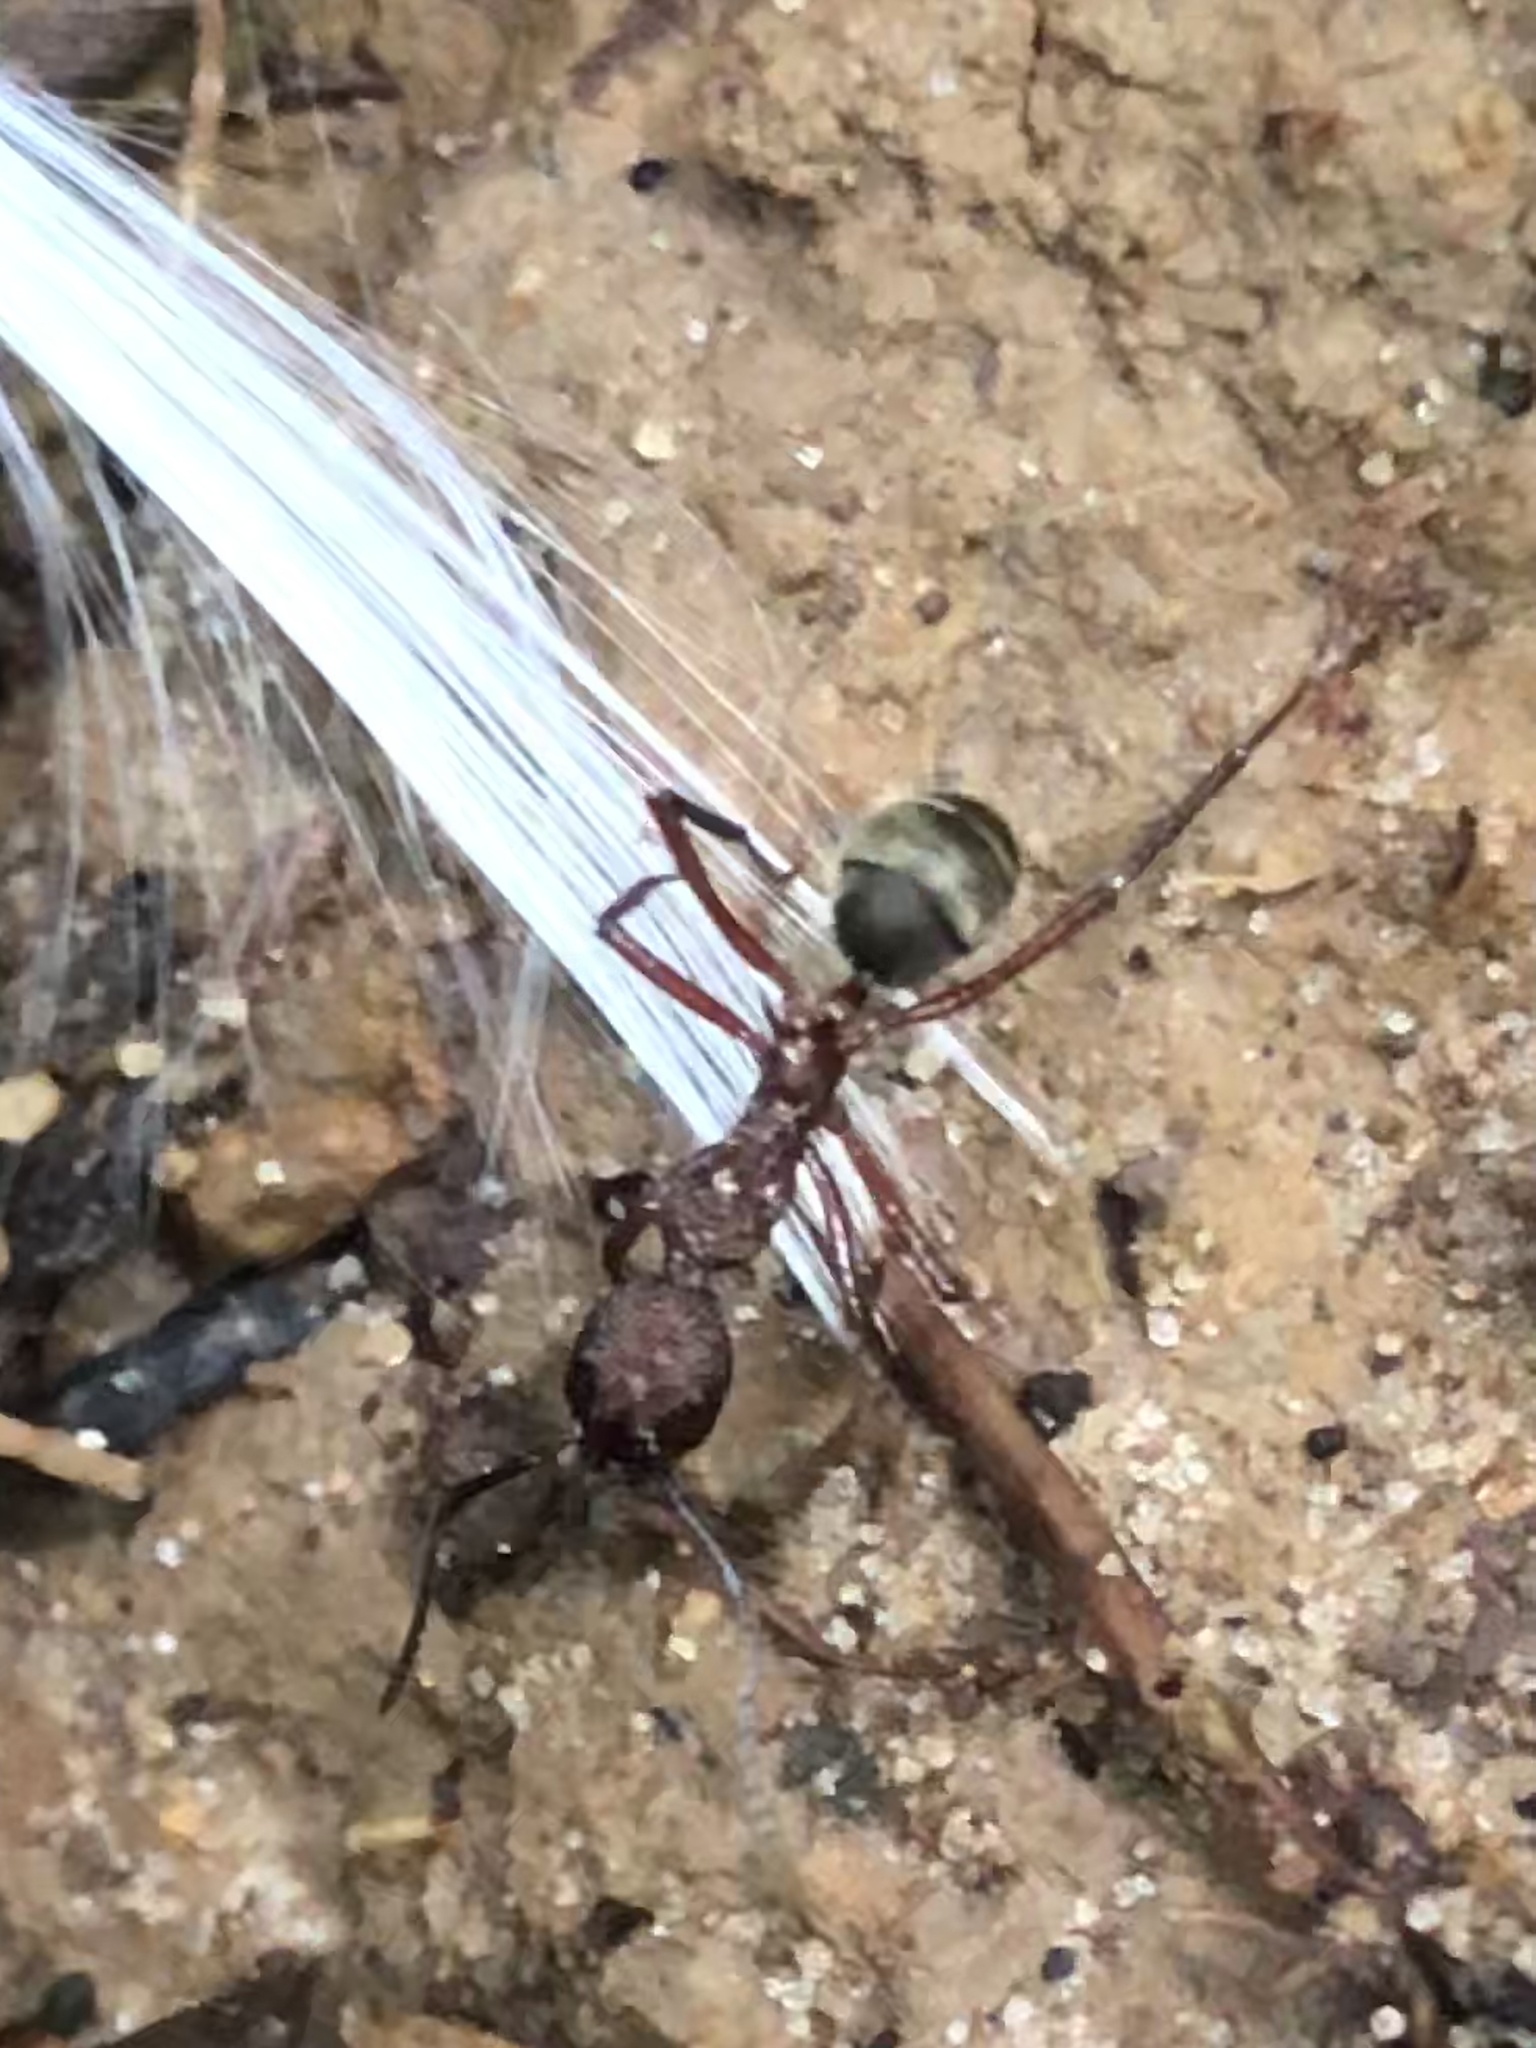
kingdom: Animalia
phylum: Arthropoda
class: Insecta
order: Hymenoptera
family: Formicidae
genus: Dolichoderus
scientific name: Dolichoderus decollatus
